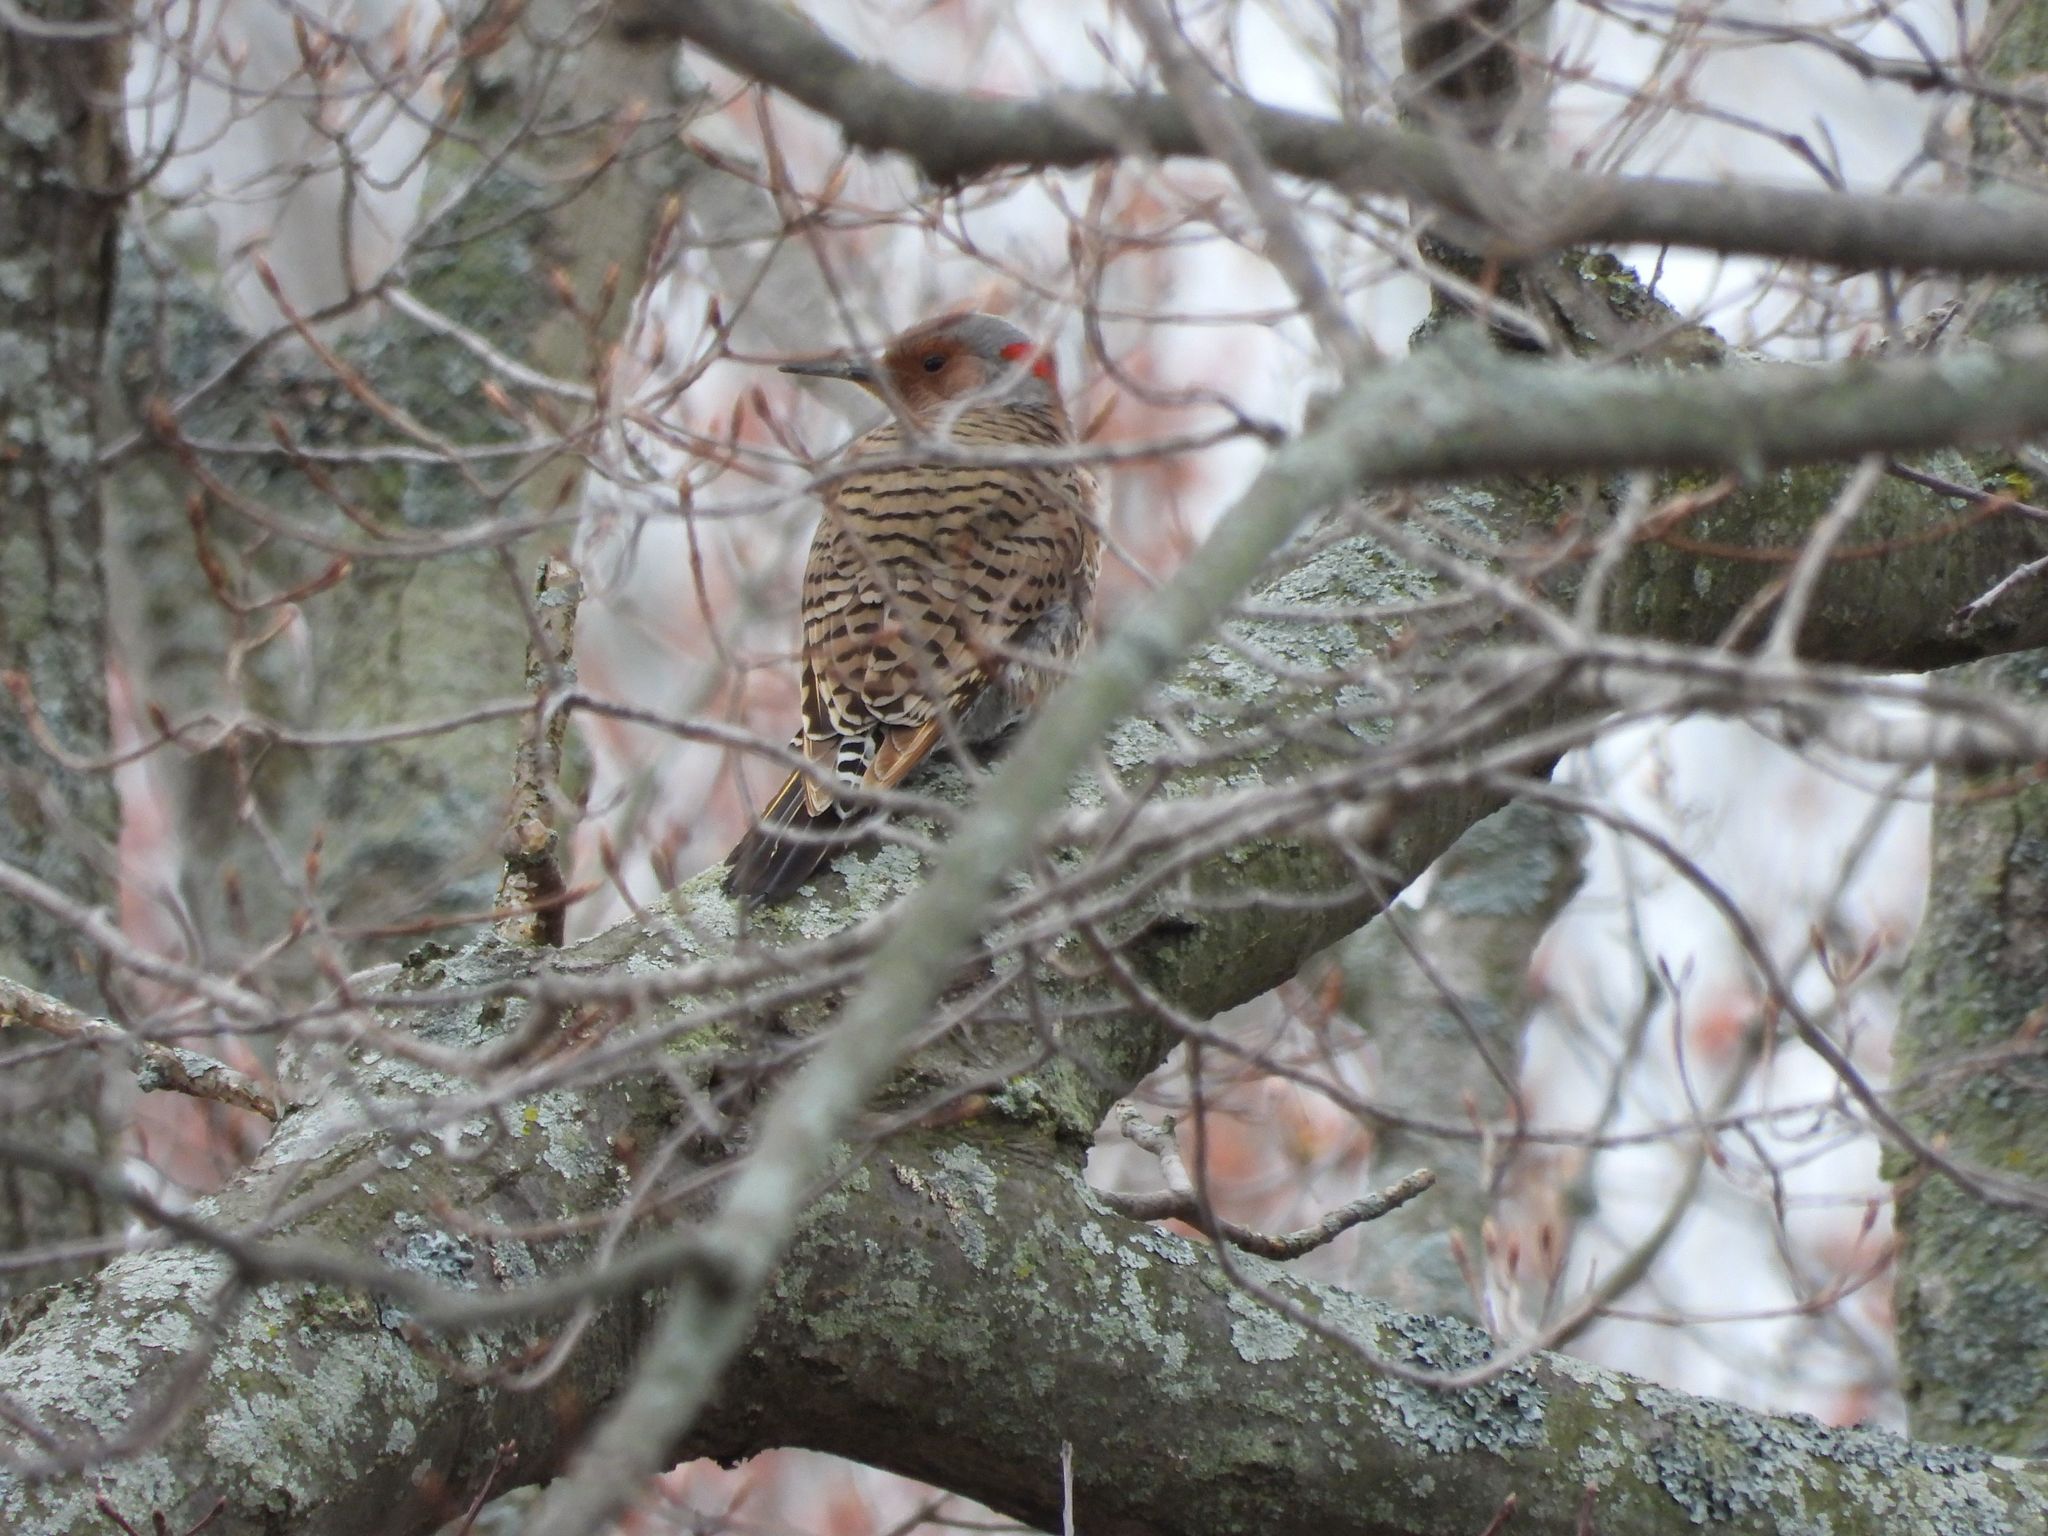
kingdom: Animalia
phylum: Chordata
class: Aves
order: Piciformes
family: Picidae
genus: Colaptes
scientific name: Colaptes auratus
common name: Northern flicker
